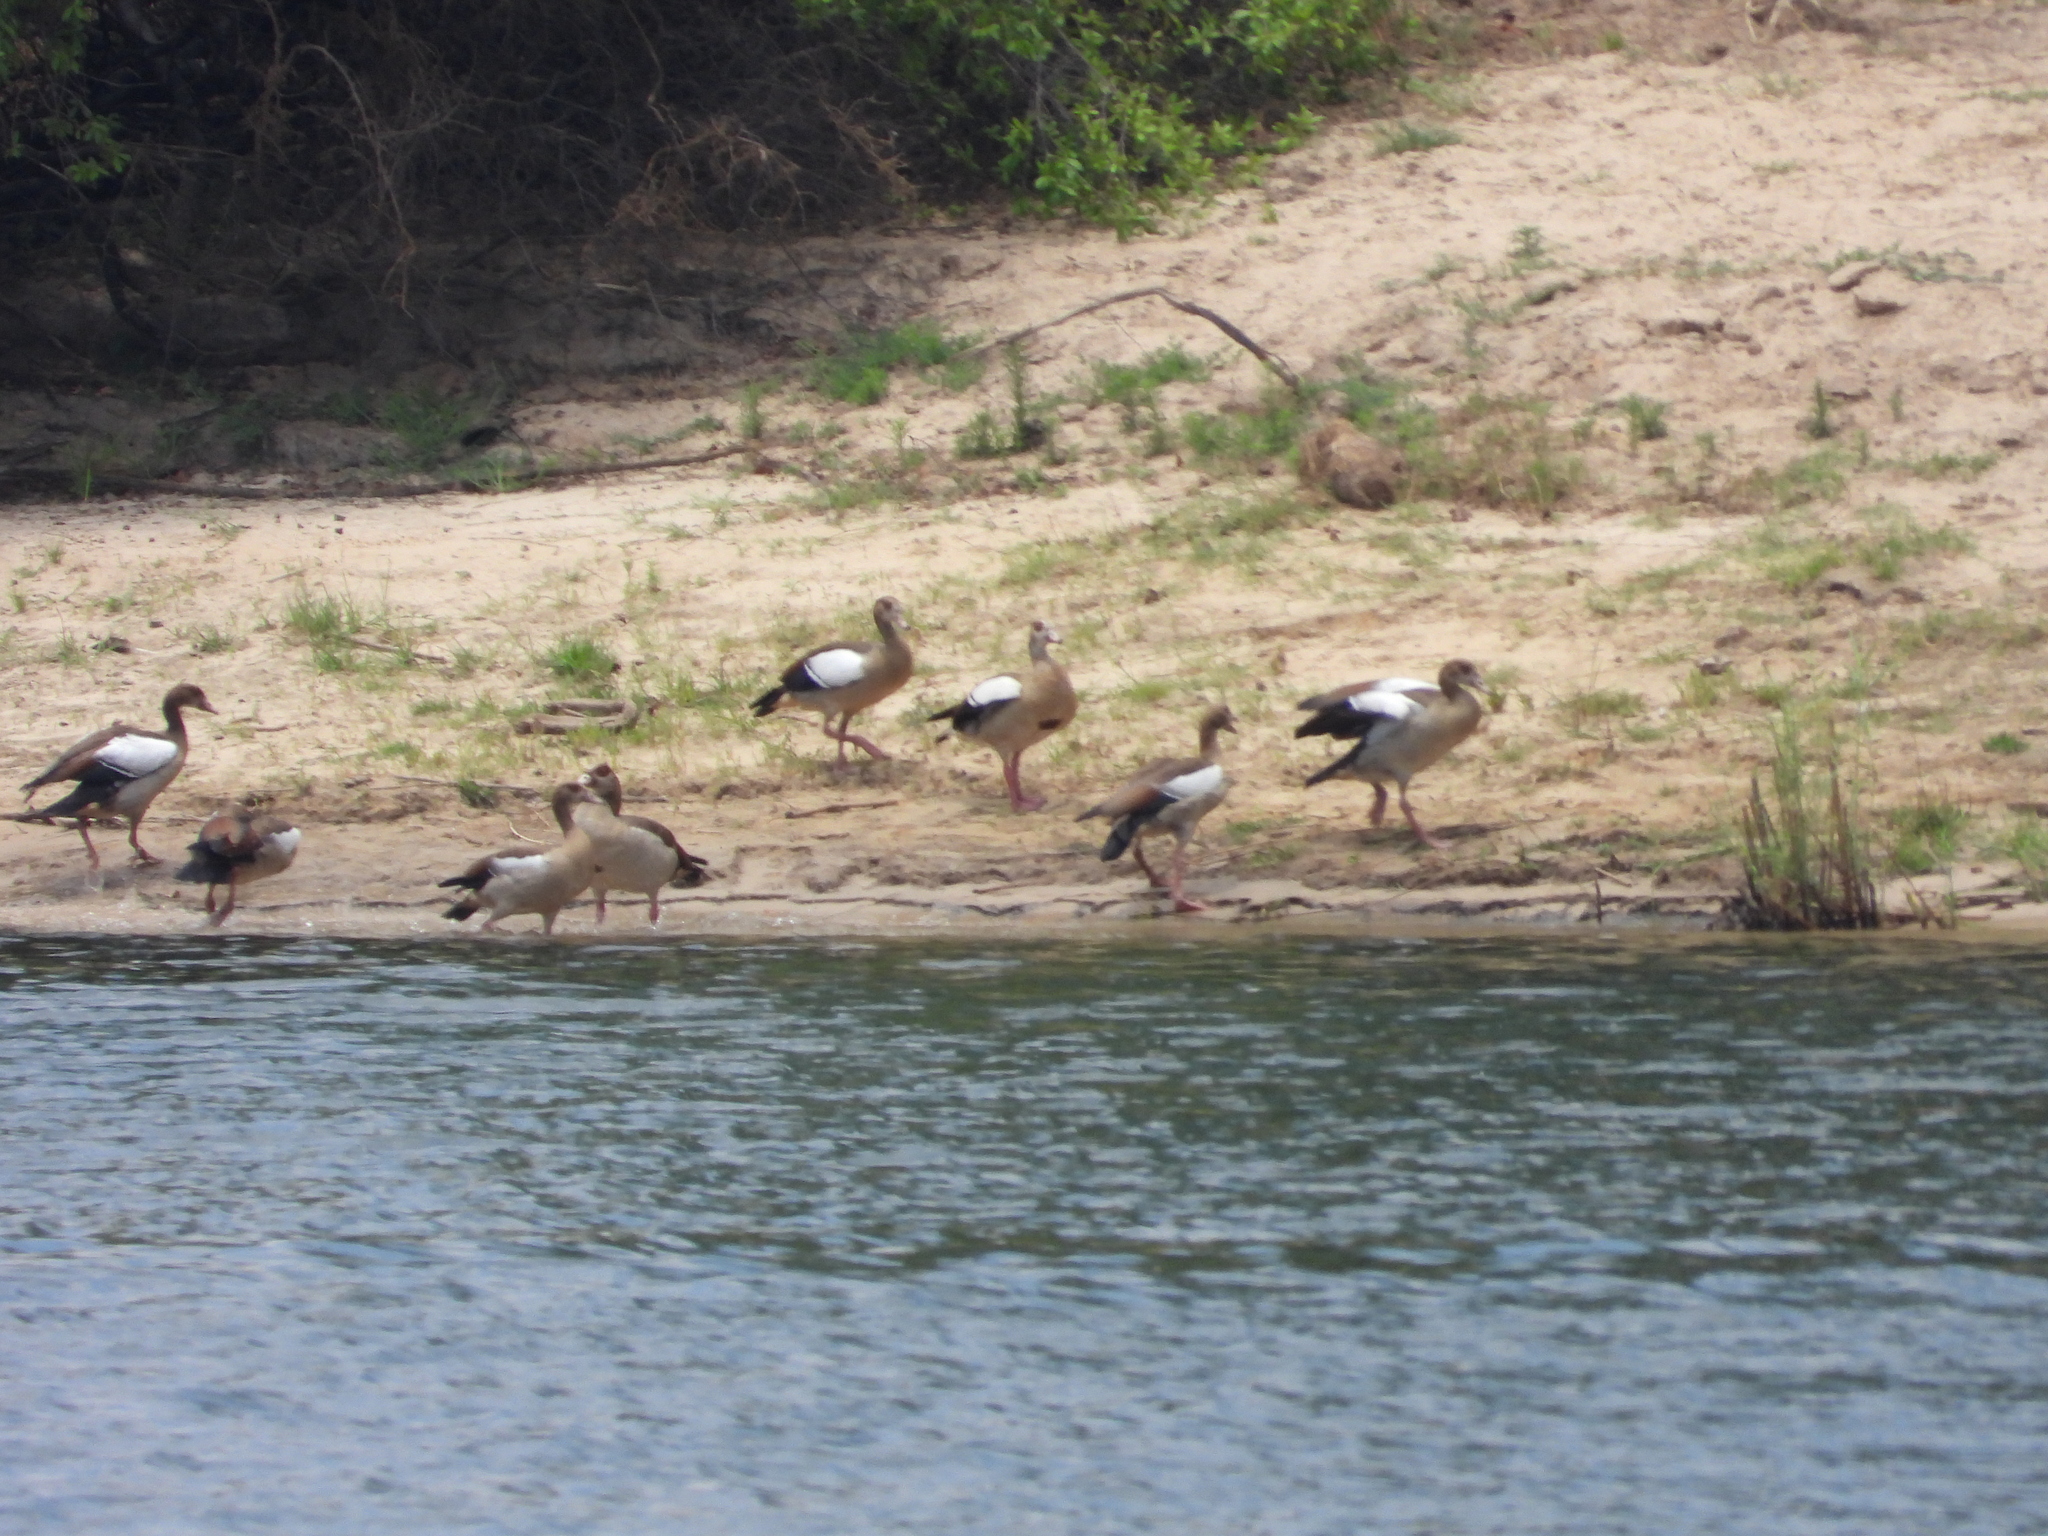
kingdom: Animalia
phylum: Chordata
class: Aves
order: Anseriformes
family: Anatidae
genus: Alopochen
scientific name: Alopochen aegyptiaca
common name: Egyptian goose
